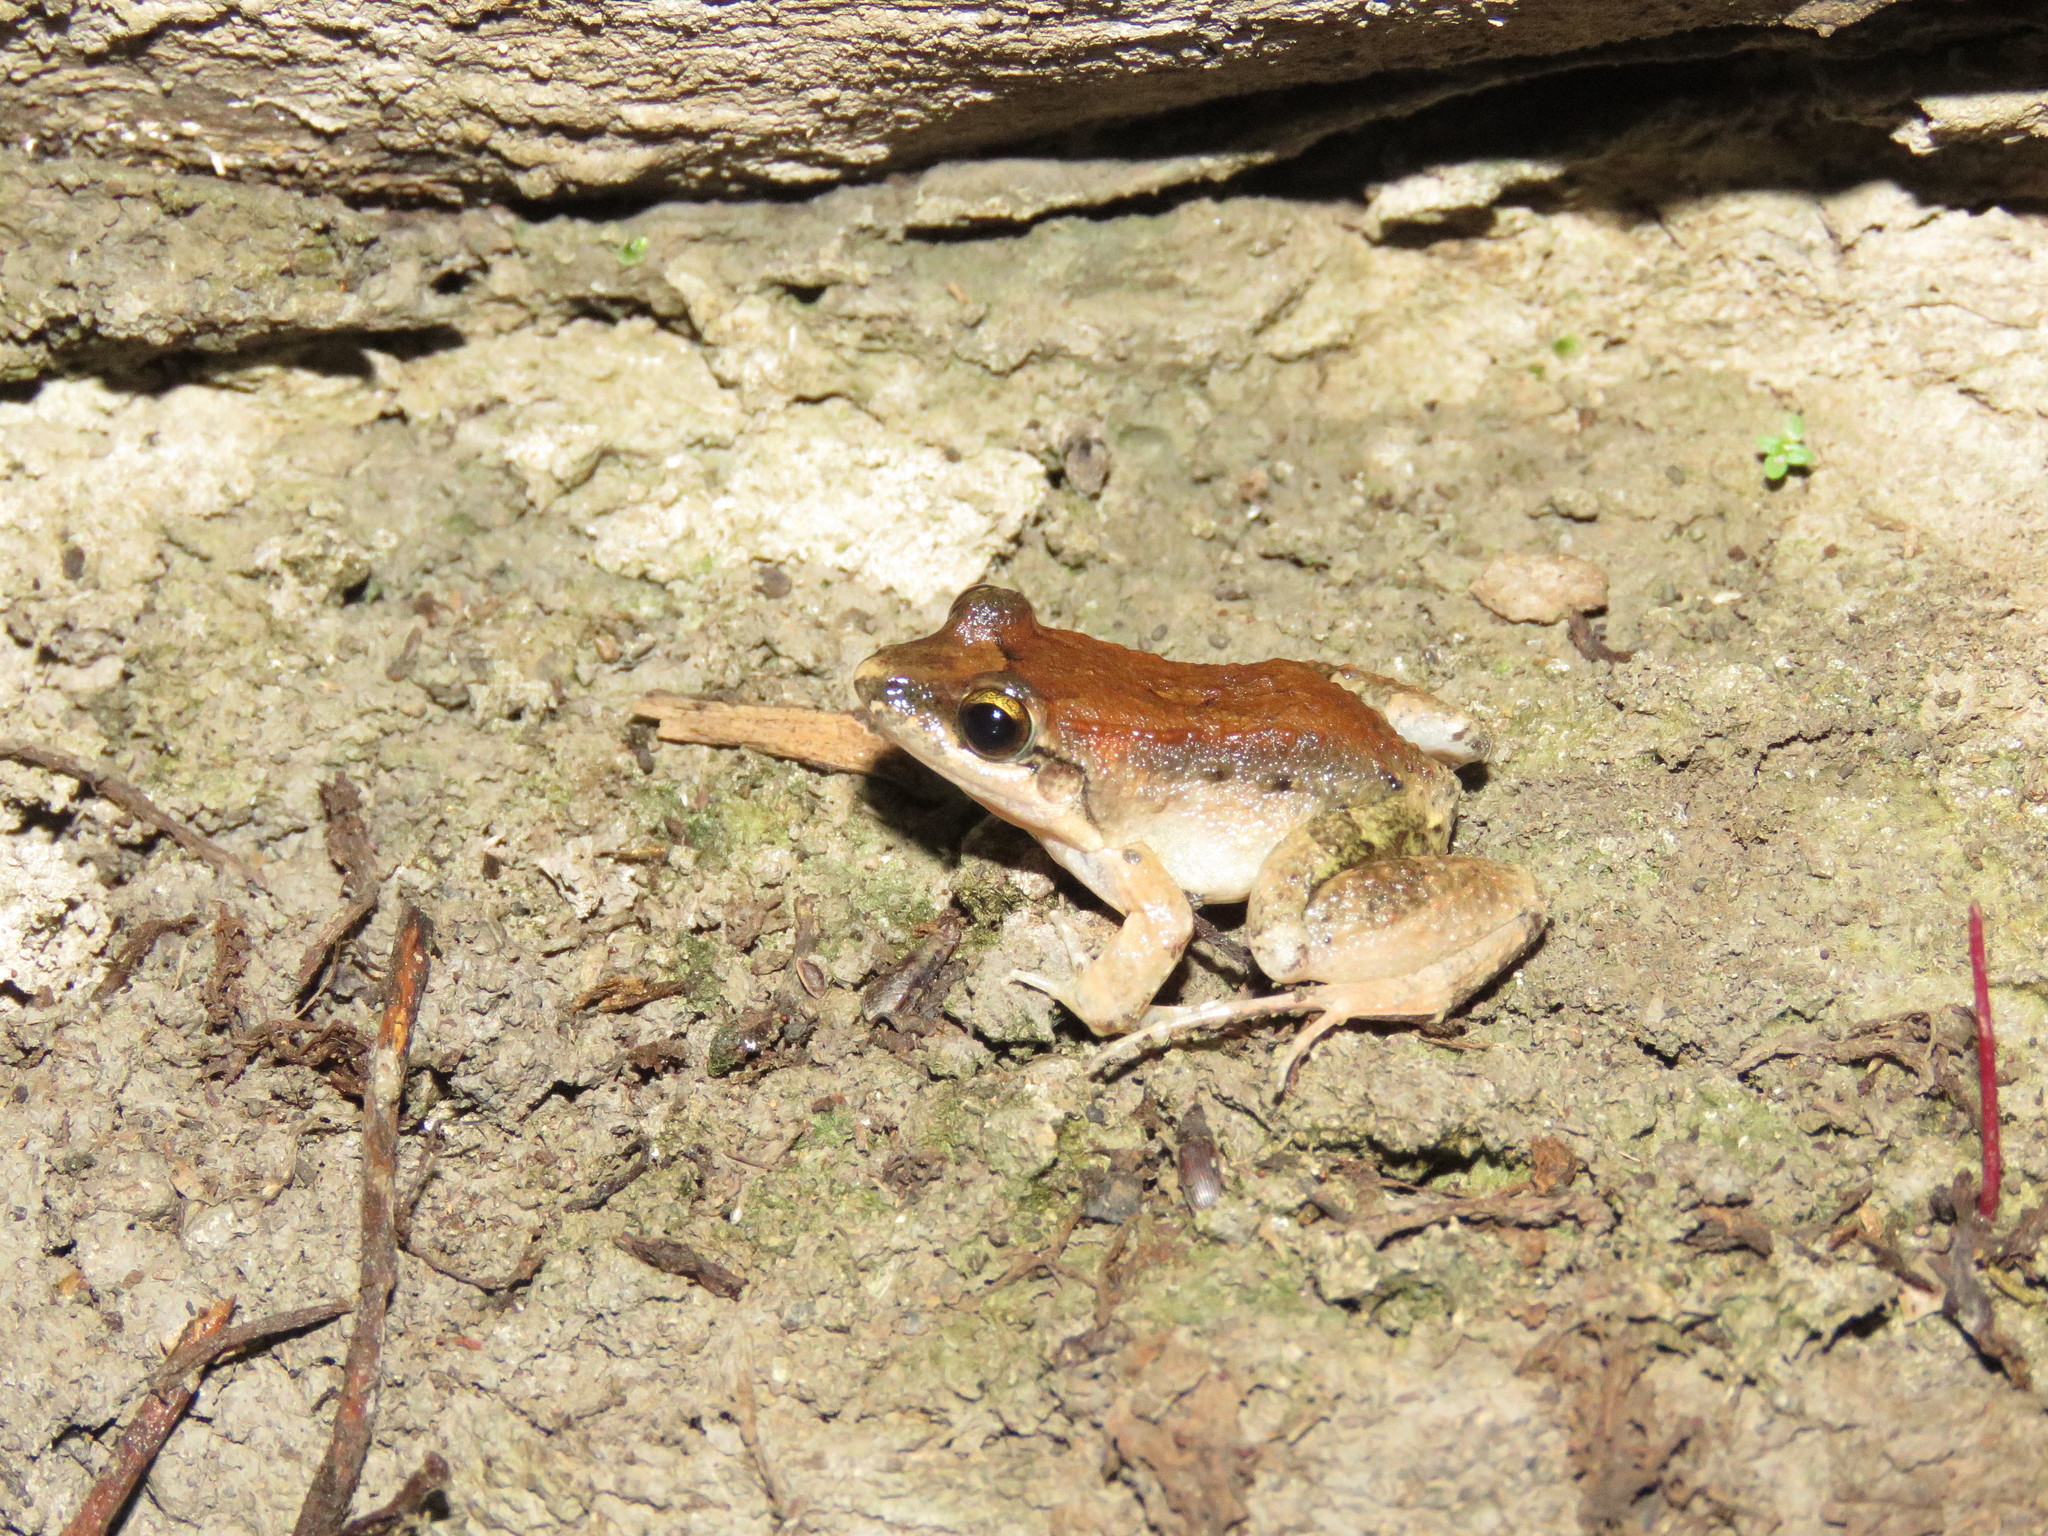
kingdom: Animalia
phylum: Chordata
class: Amphibia
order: Anura
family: Leptodactylidae
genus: Leptodactylus
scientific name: Leptodactylus leptodactyloides
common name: Common thin-toed frog
